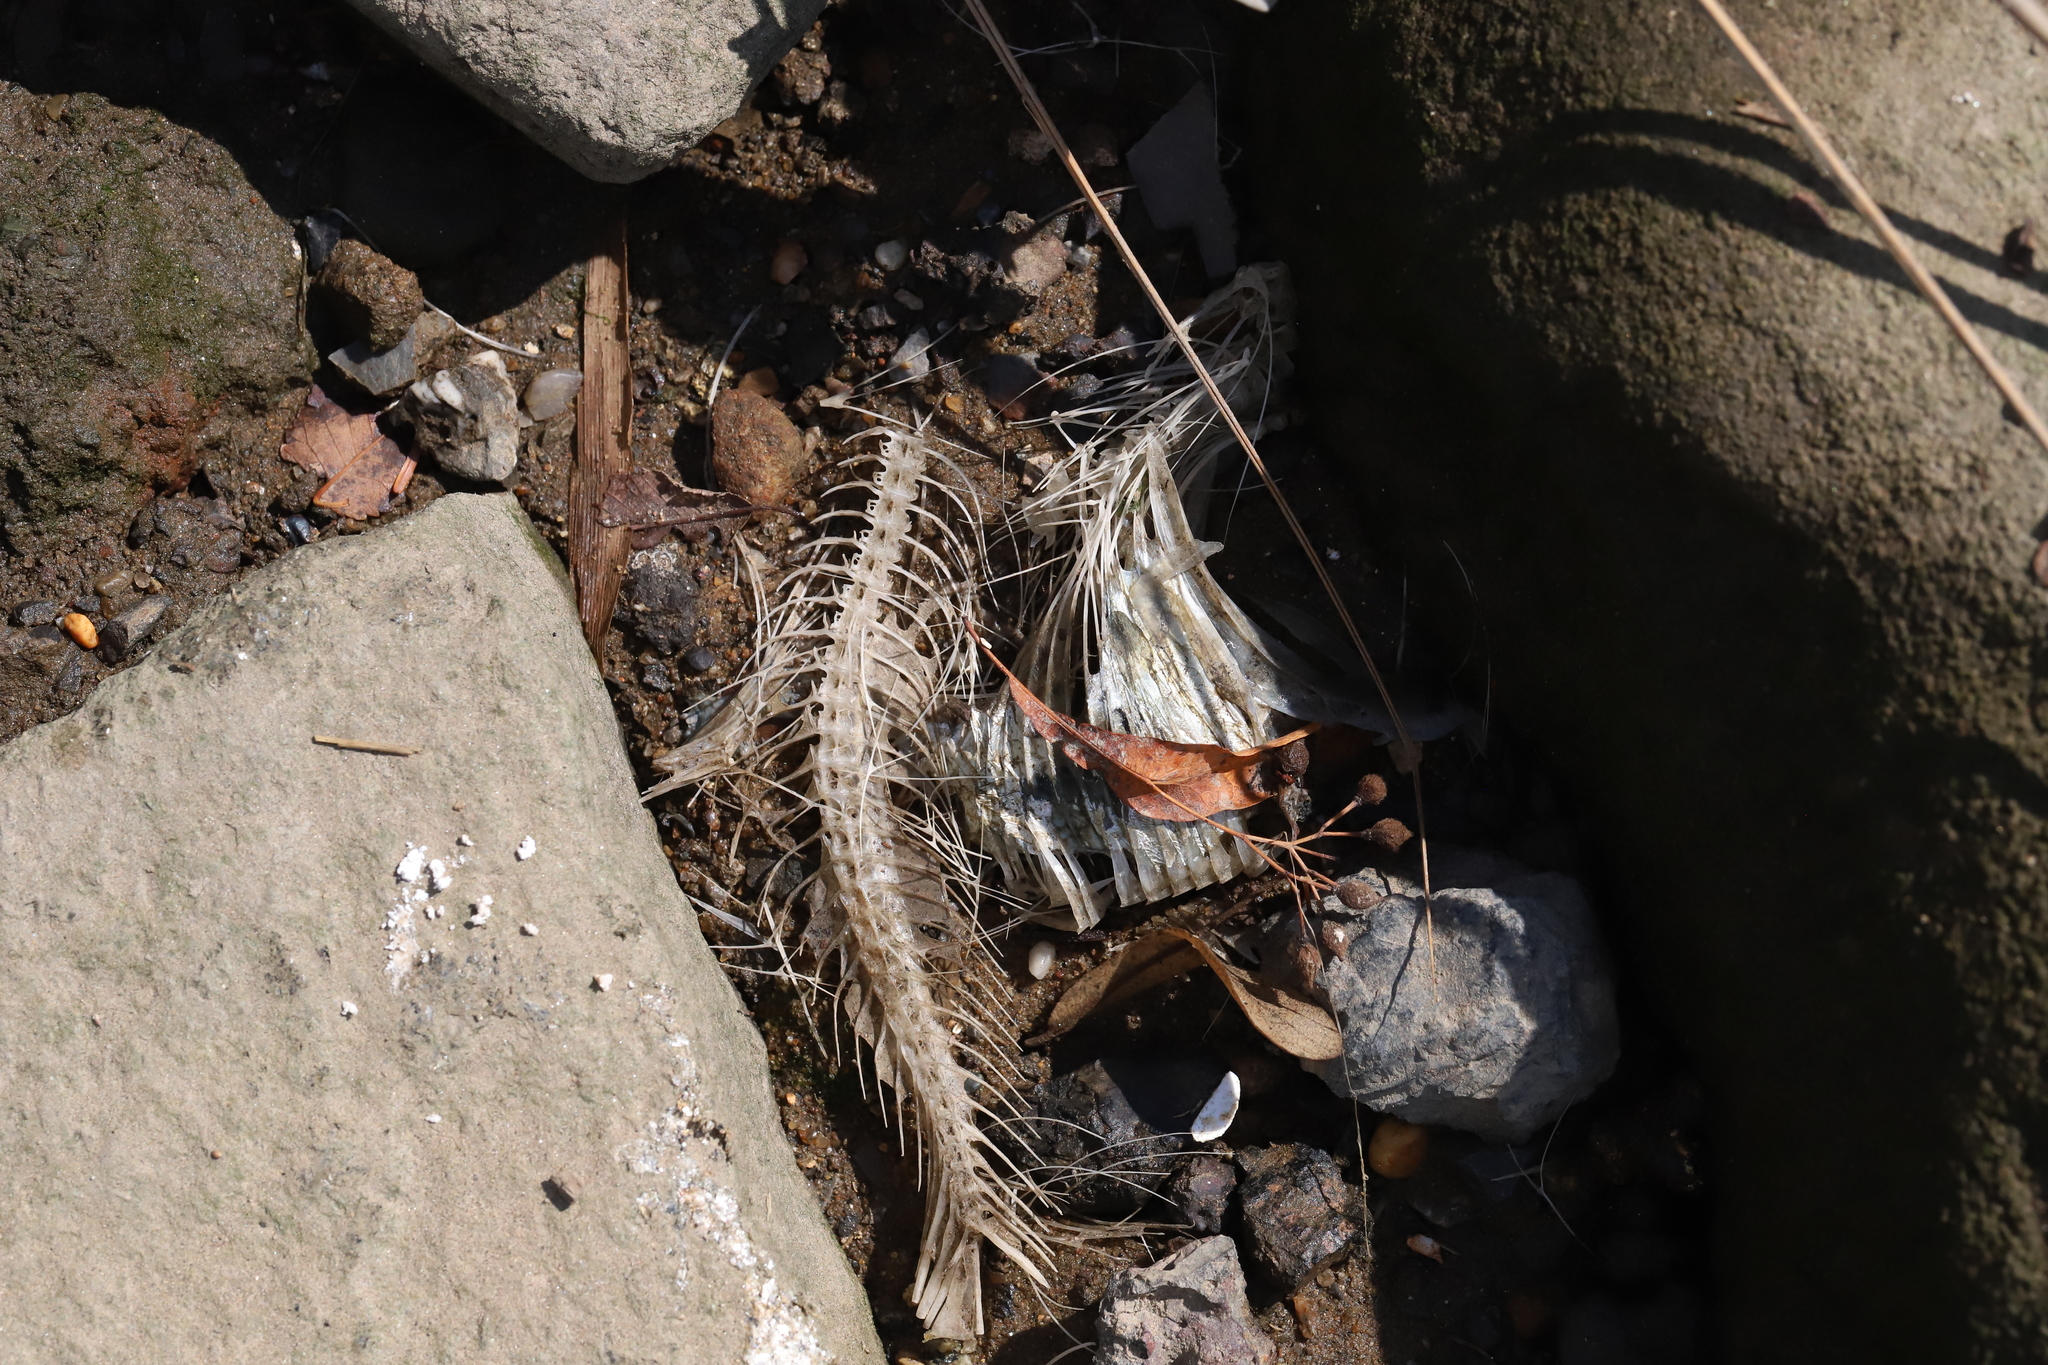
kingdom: Animalia
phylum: Chordata
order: Clupeiformes
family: Clupeidae
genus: Brevoortia
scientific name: Brevoortia tyrannus
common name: Atlantic menhaden
